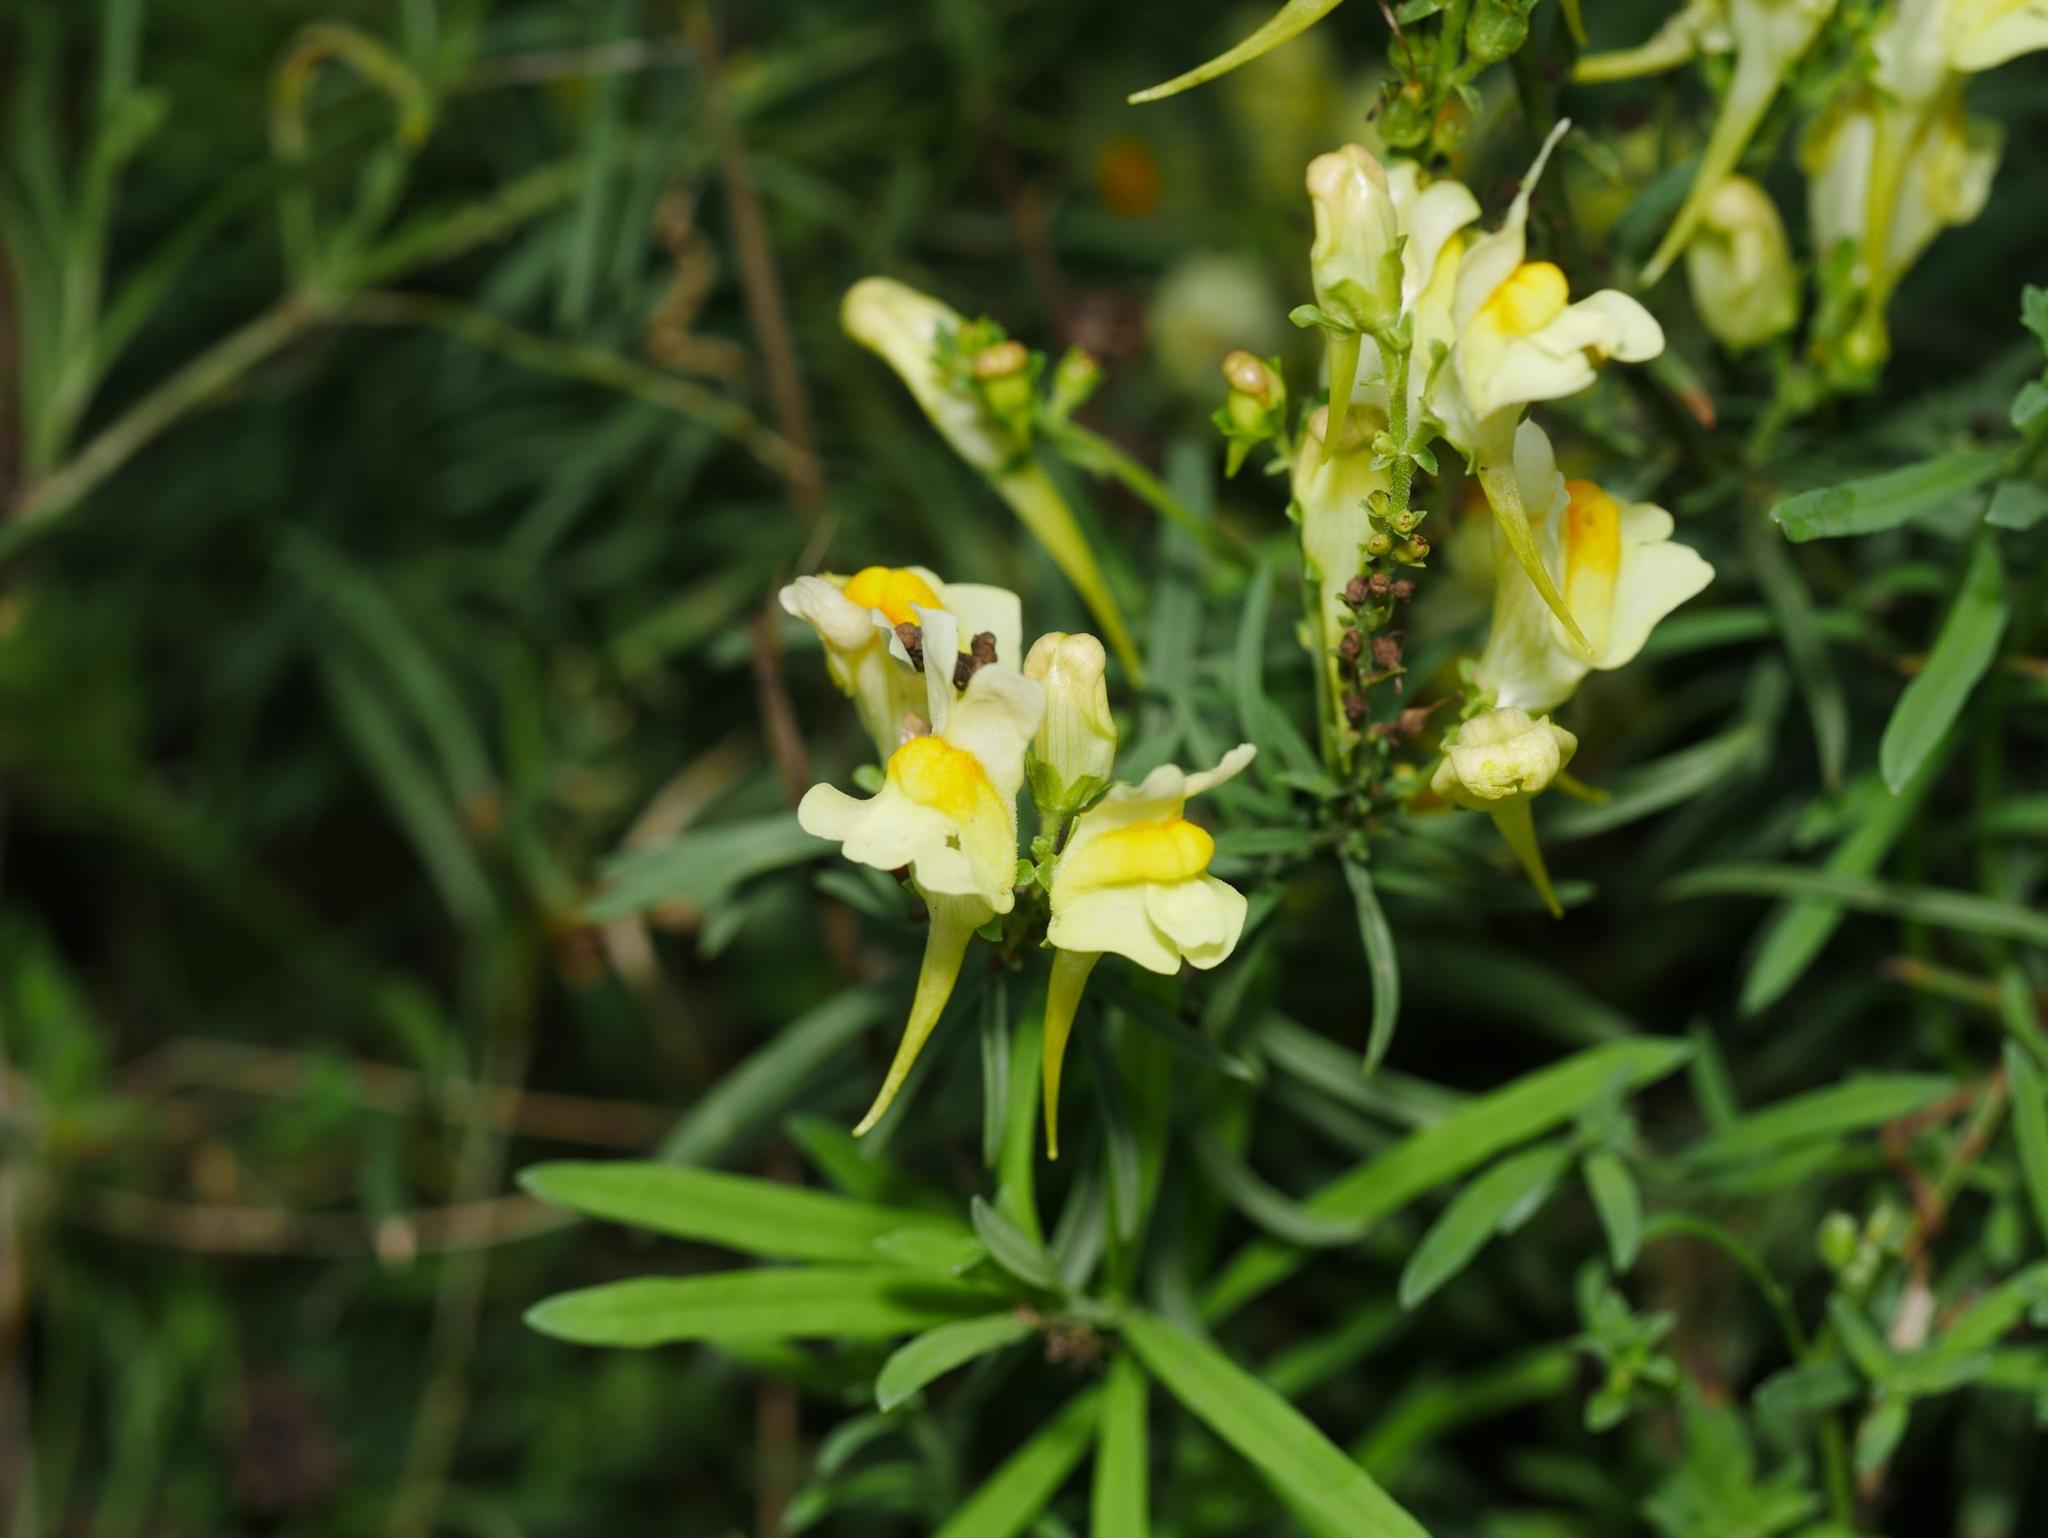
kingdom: Plantae
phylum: Tracheophyta
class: Magnoliopsida
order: Lamiales
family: Plantaginaceae
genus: Linaria
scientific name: Linaria vulgaris
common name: Butter and eggs
